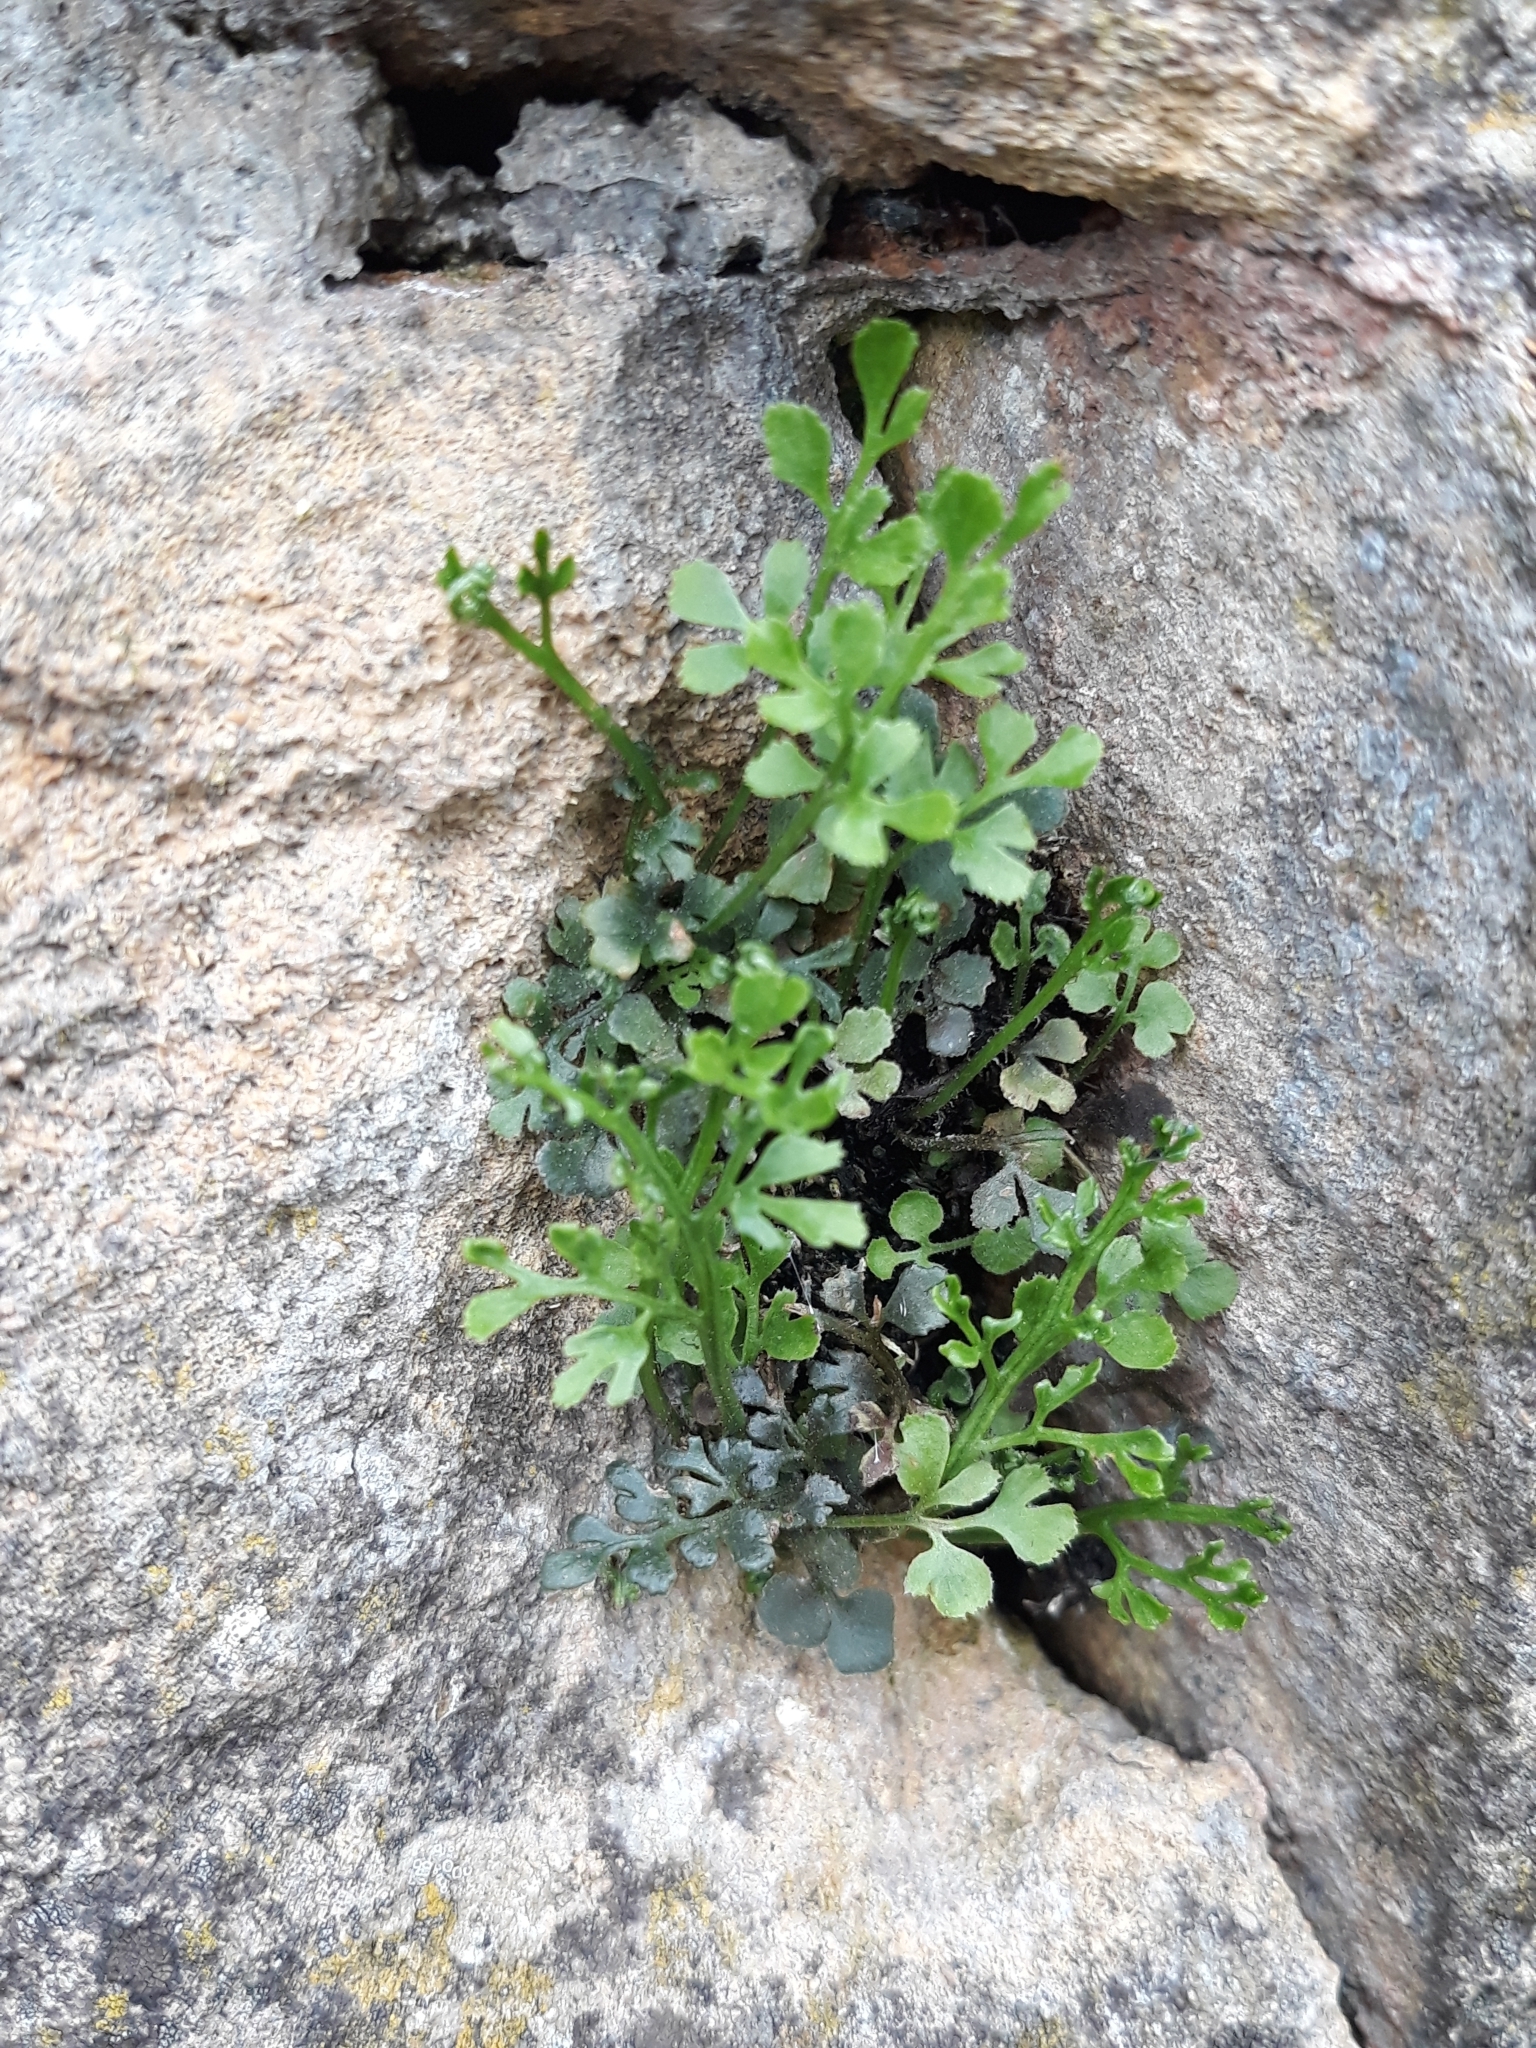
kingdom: Plantae
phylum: Tracheophyta
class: Polypodiopsida
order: Polypodiales
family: Aspleniaceae
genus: Asplenium
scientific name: Asplenium ruta-muraria
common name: Wall-rue
